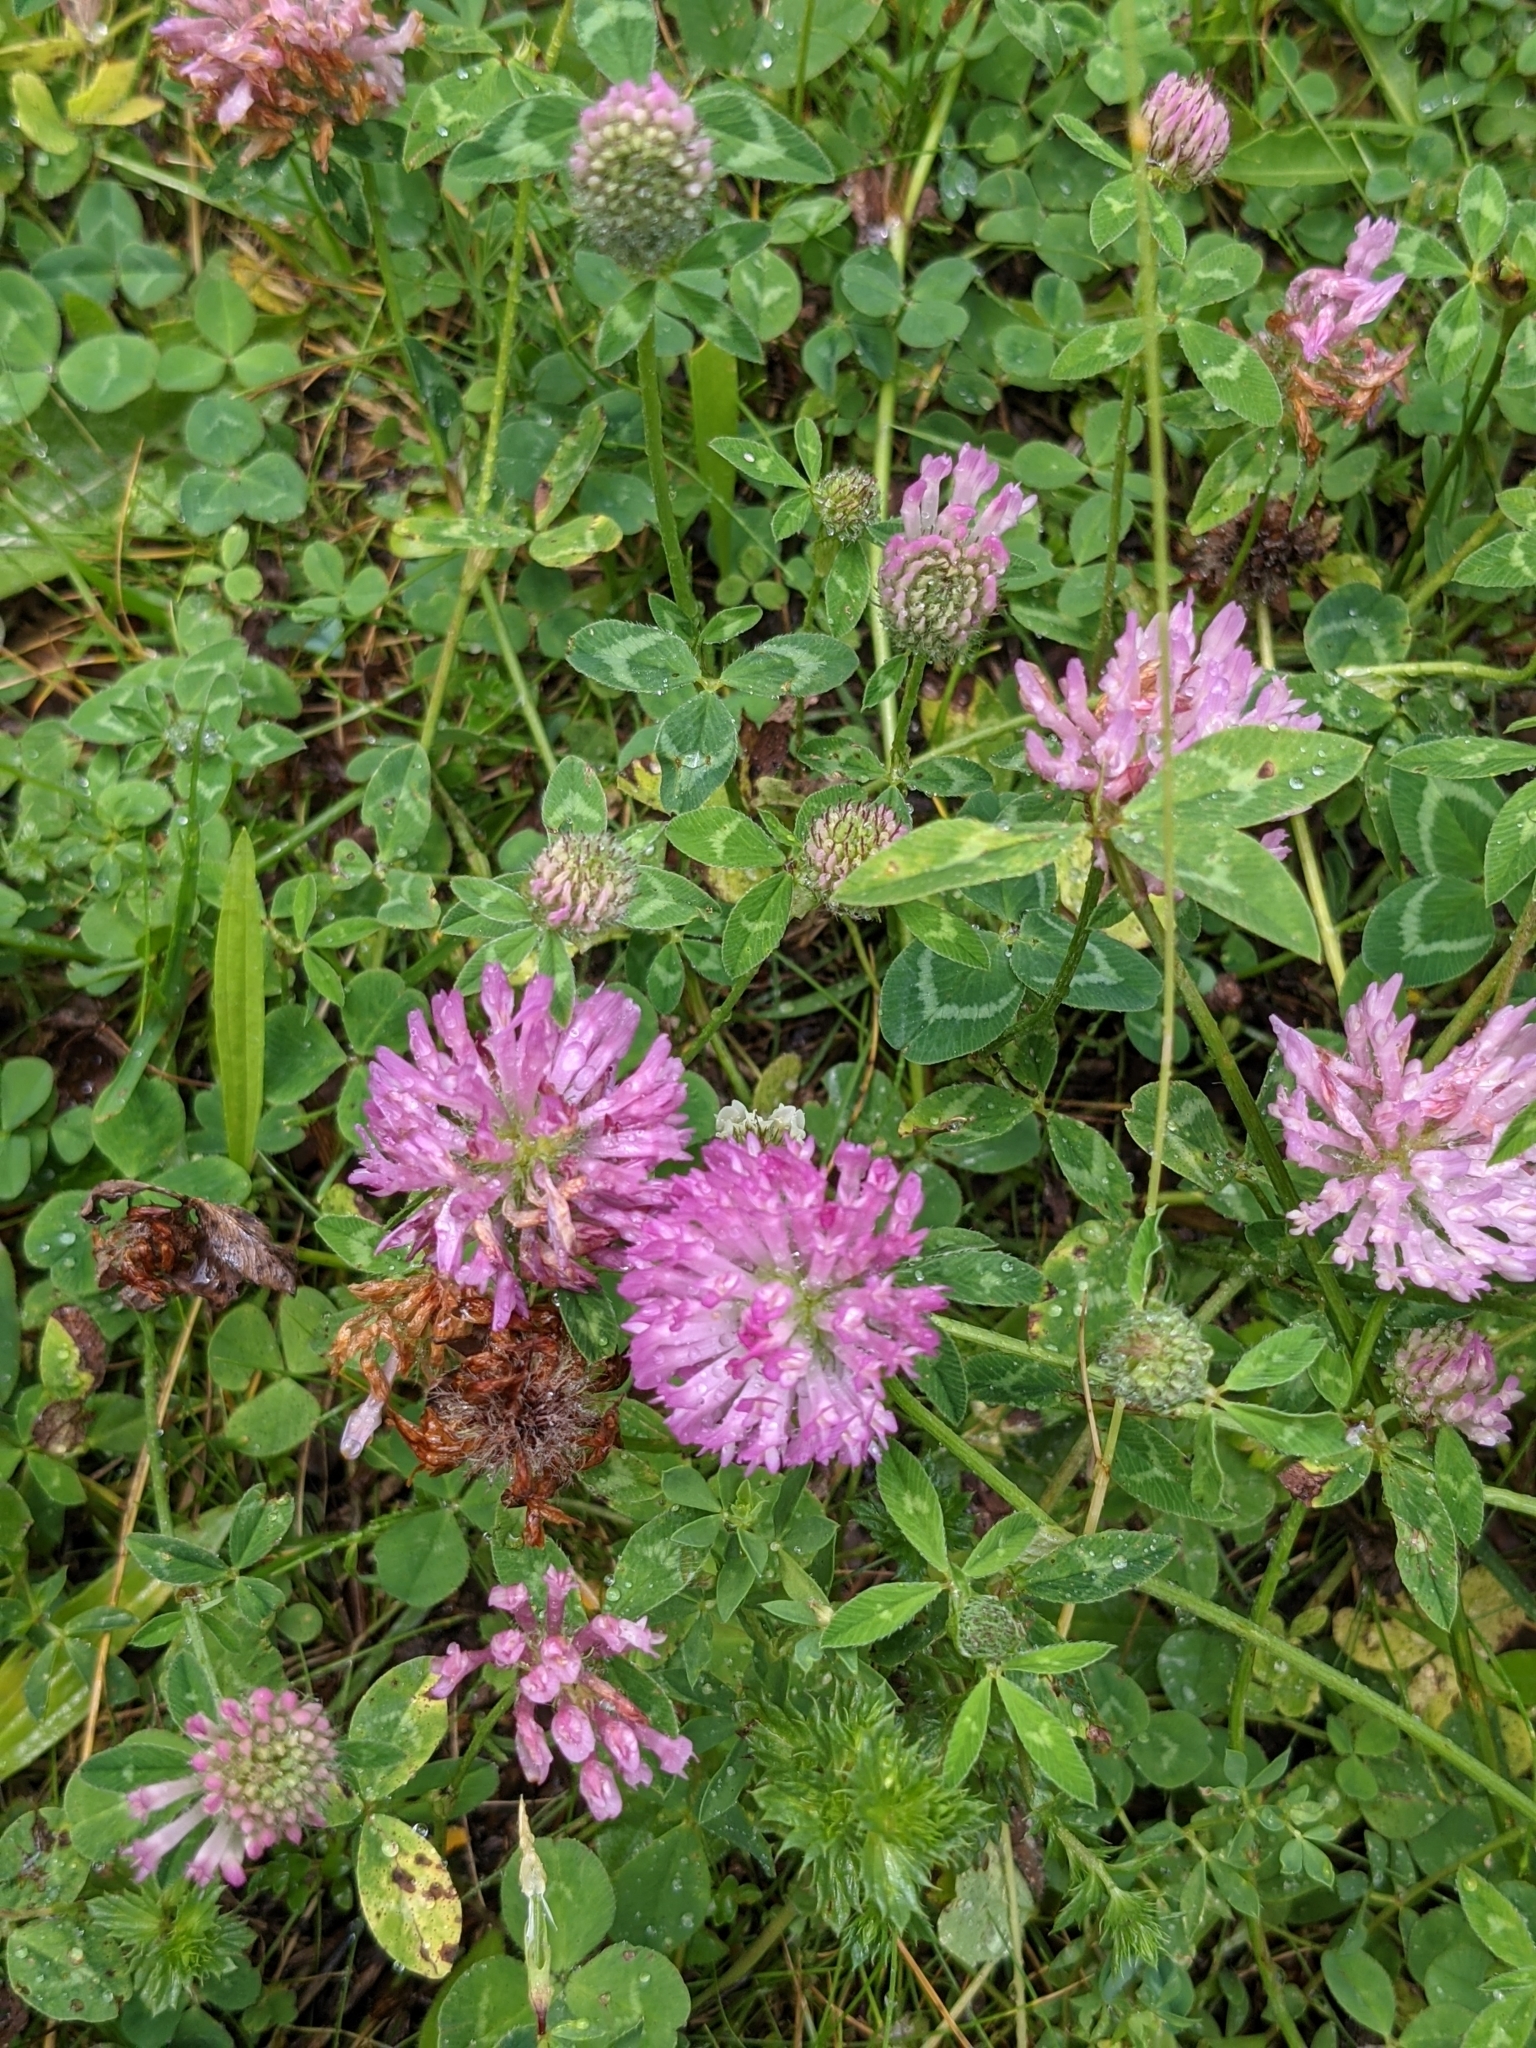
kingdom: Plantae
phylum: Tracheophyta
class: Magnoliopsida
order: Fabales
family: Fabaceae
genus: Trifolium
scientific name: Trifolium pratense
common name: Red clover
